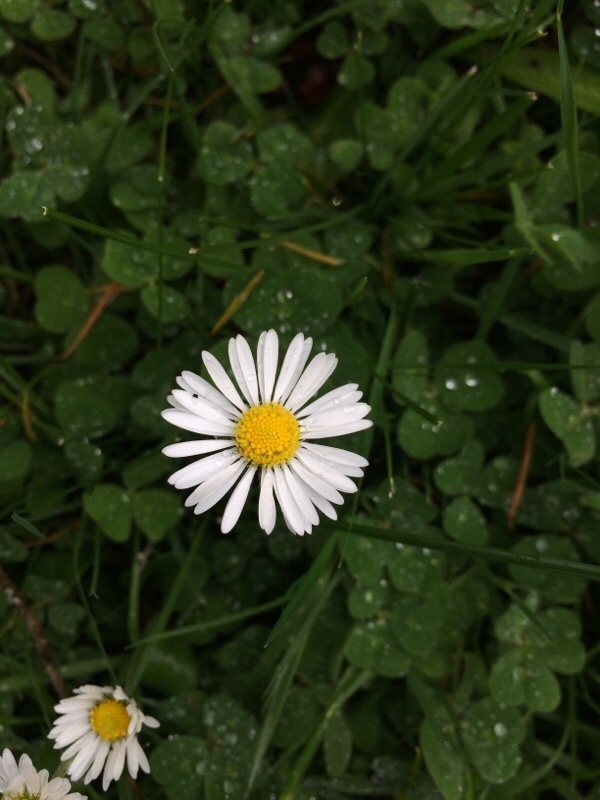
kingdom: Plantae
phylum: Tracheophyta
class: Magnoliopsida
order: Asterales
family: Asteraceae
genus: Bellis
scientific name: Bellis perennis
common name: Lawndaisy
